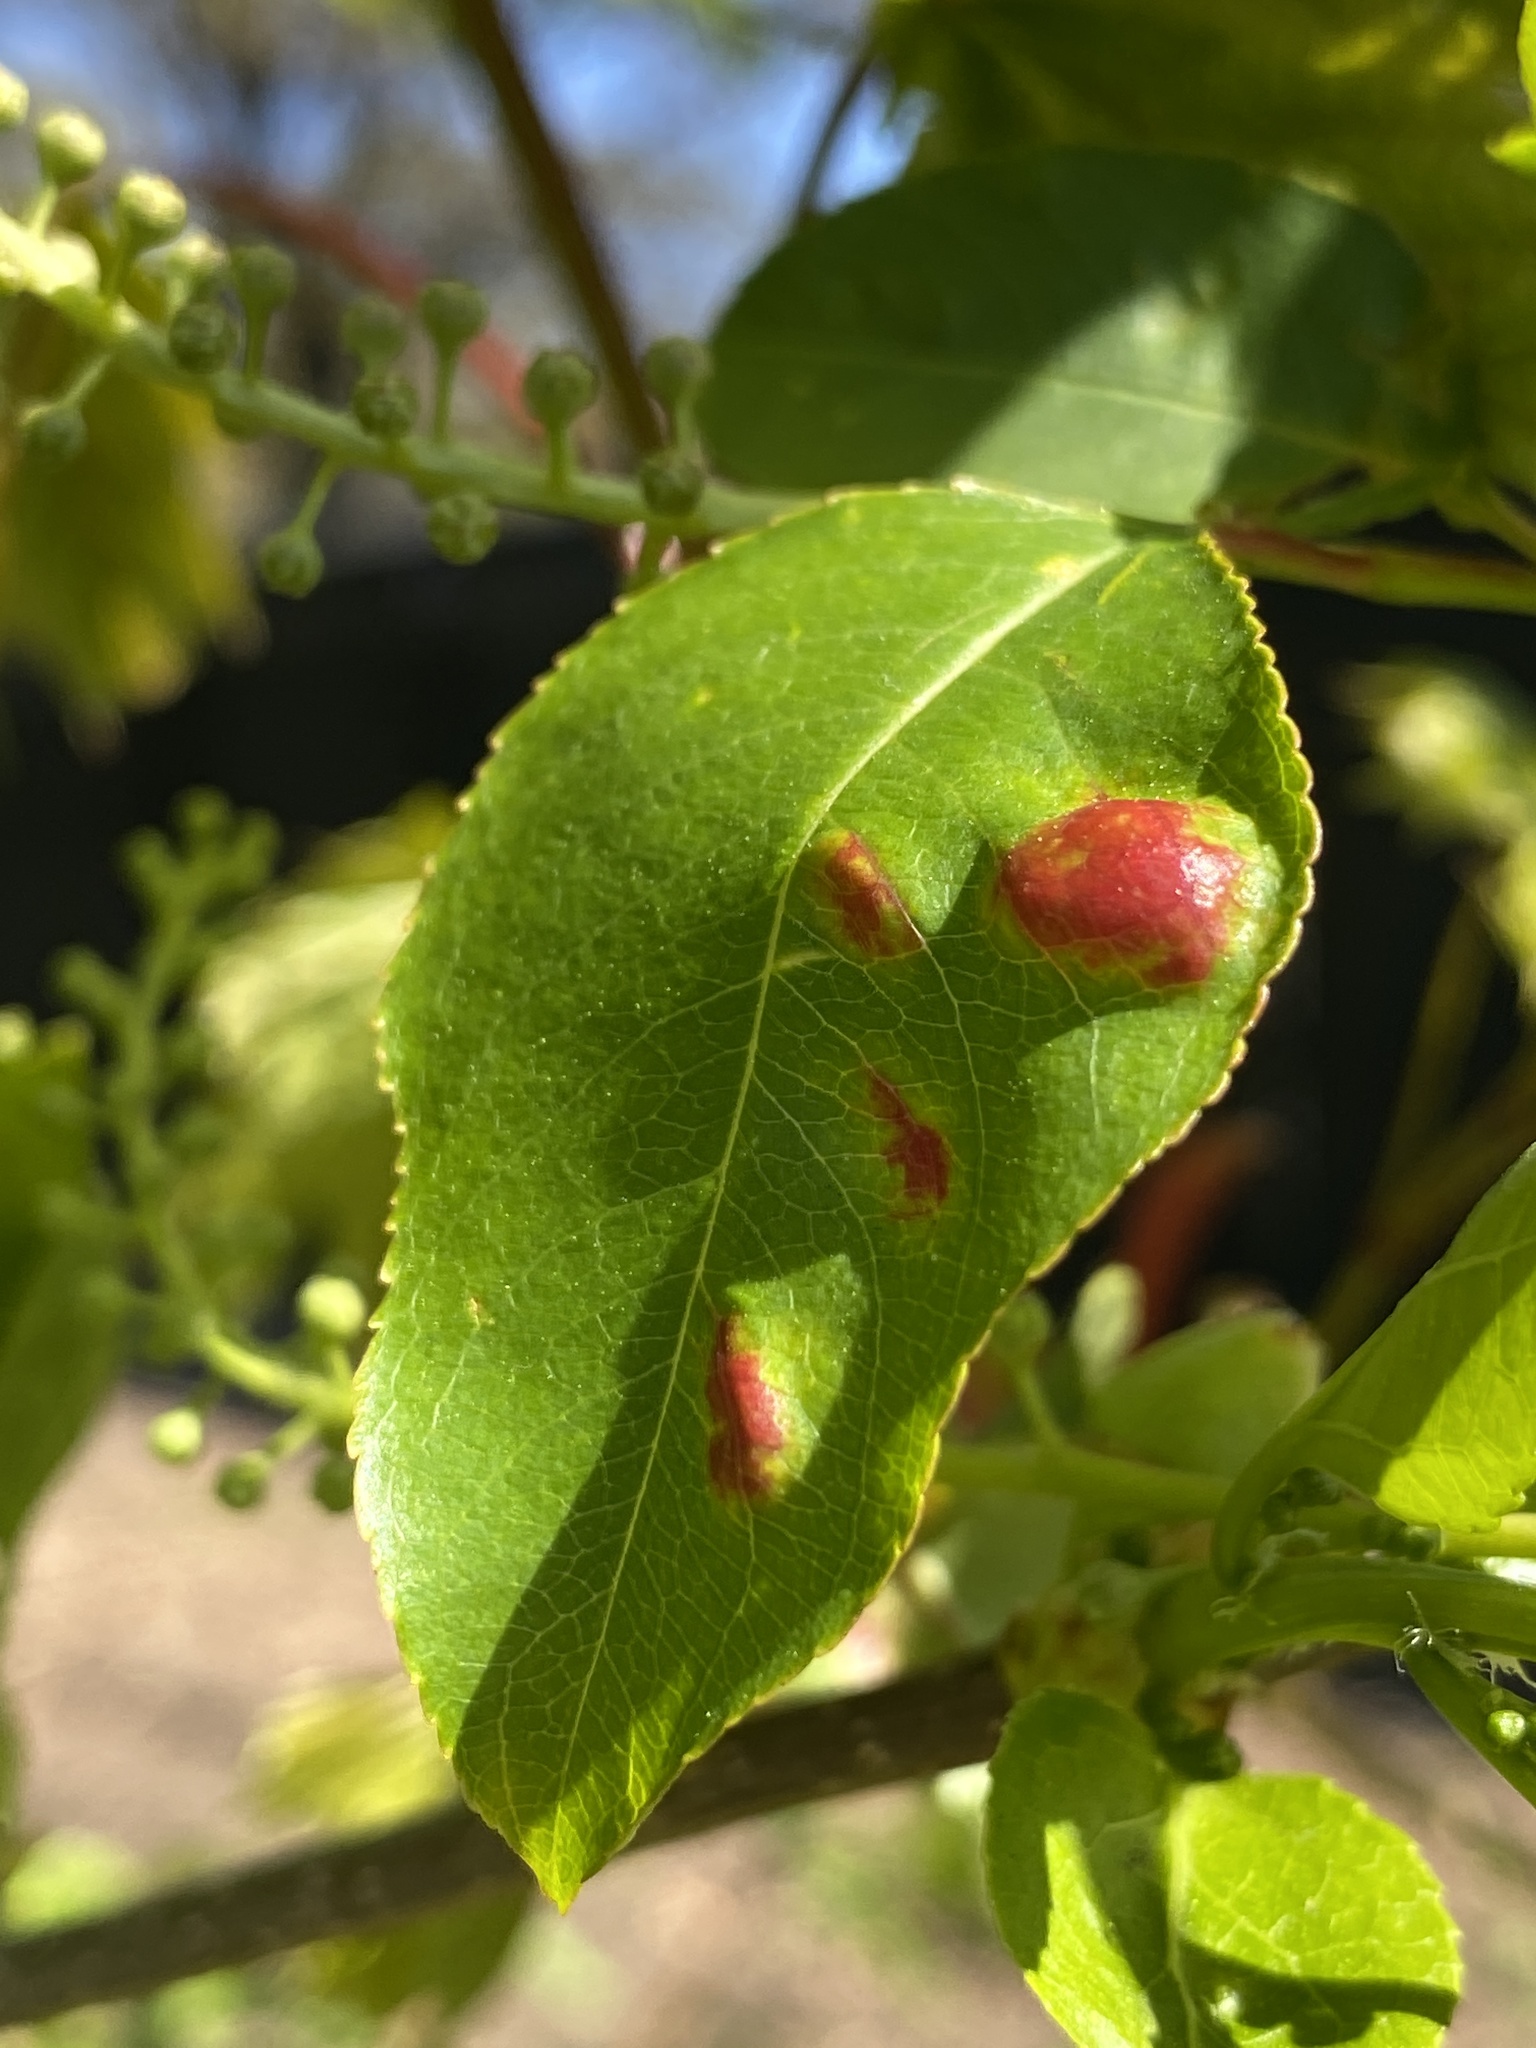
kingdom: Fungi
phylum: Ascomycota
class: Taphrinomycetes
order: Taphrinales
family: Taphrinaceae
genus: Taphrina
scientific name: Taphrina deformans
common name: Peach leaf curl
